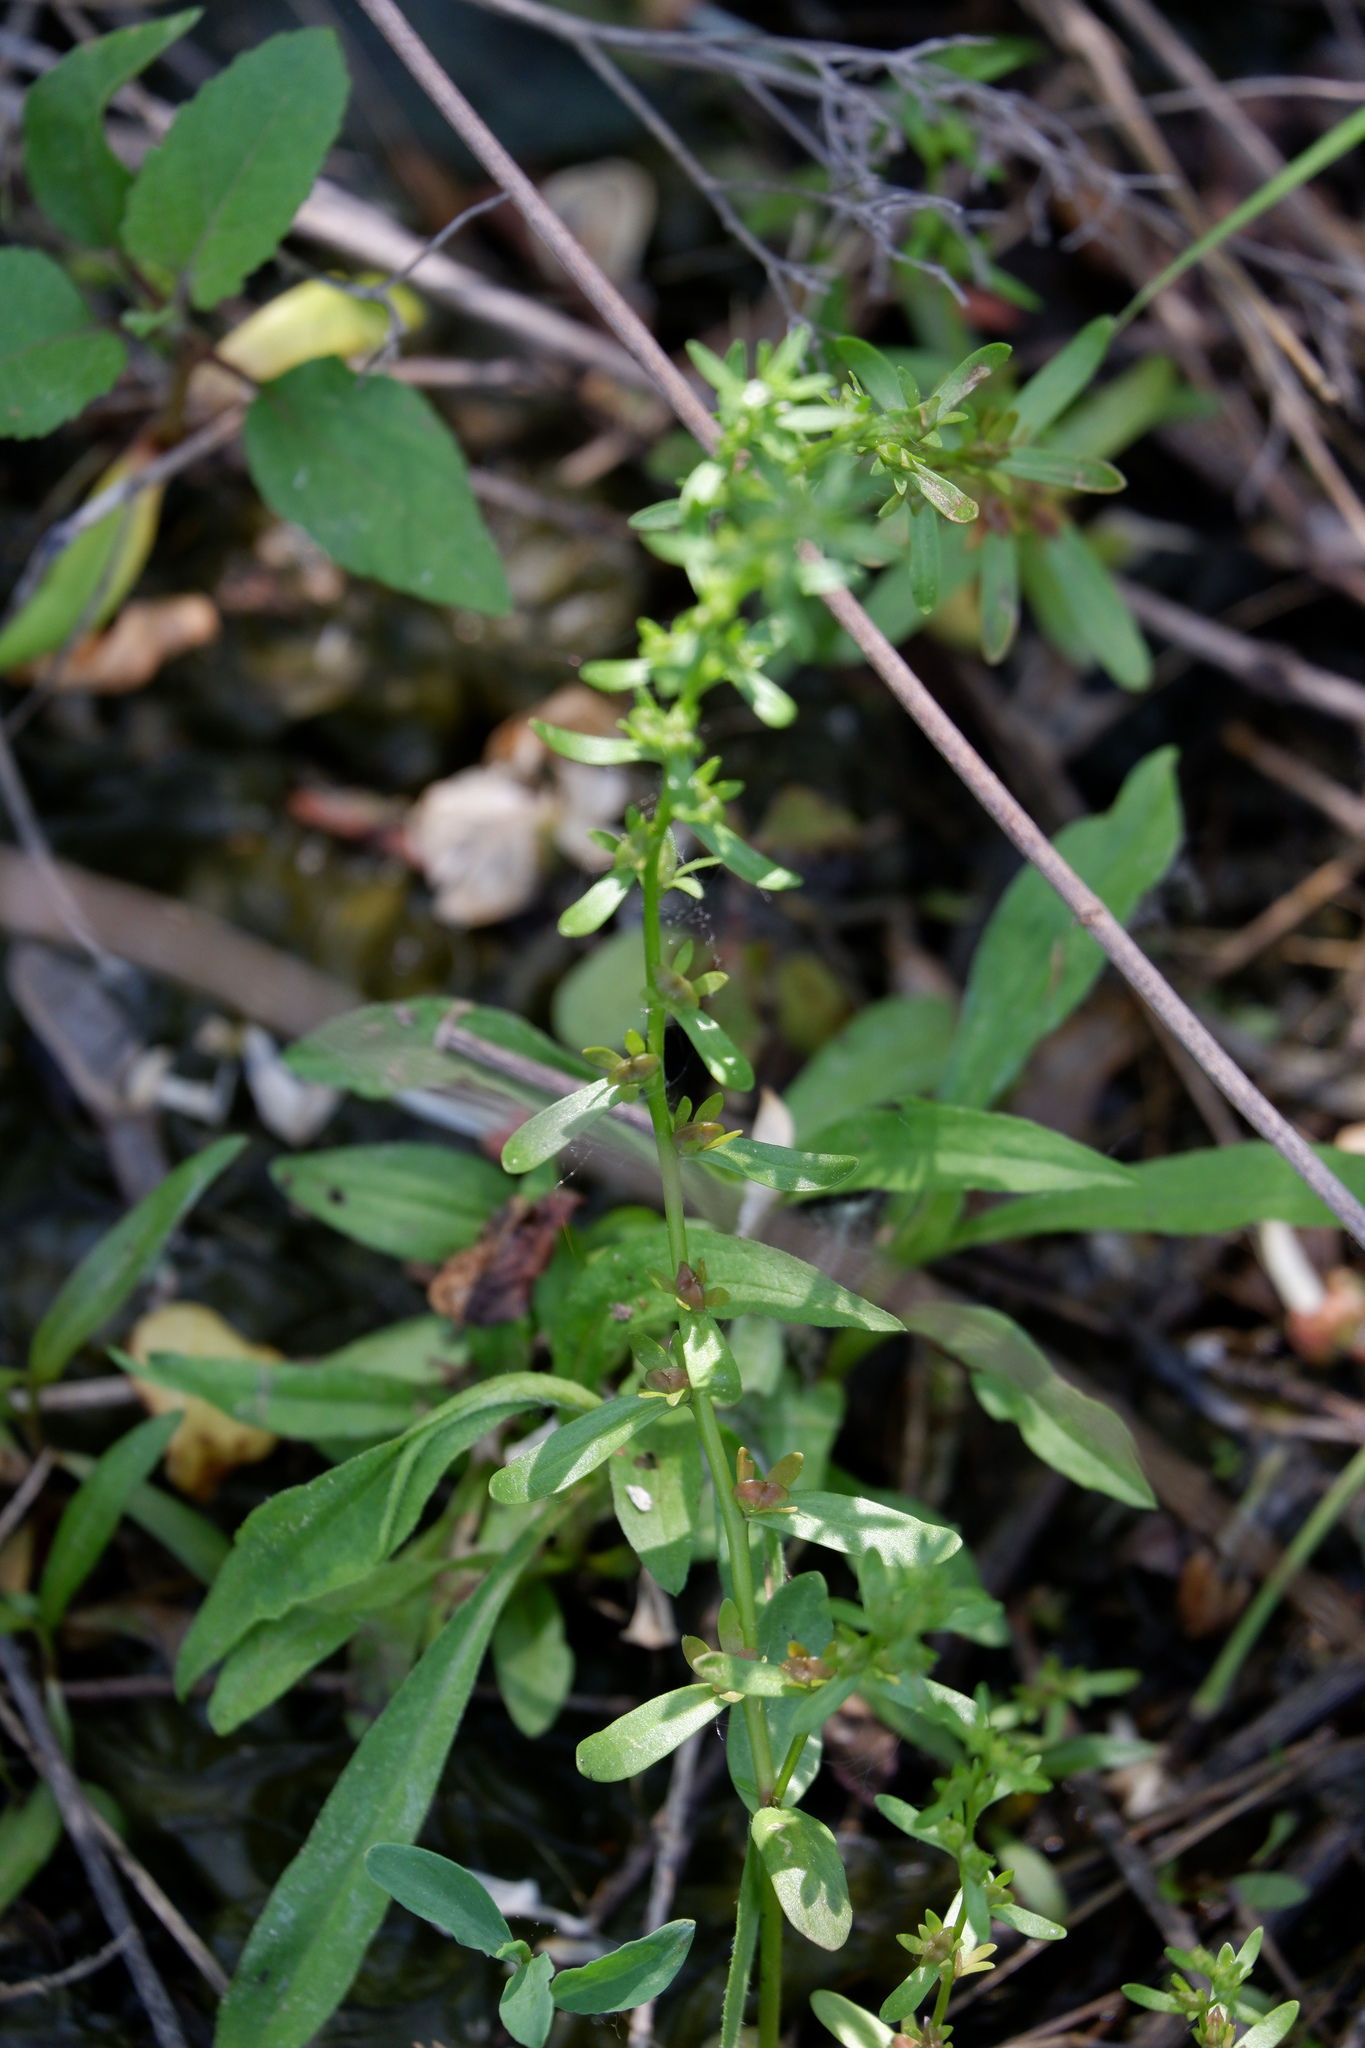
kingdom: Plantae
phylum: Tracheophyta
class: Magnoliopsida
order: Lamiales
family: Plantaginaceae
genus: Veronica
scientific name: Veronica peregrina
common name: Neckweed
